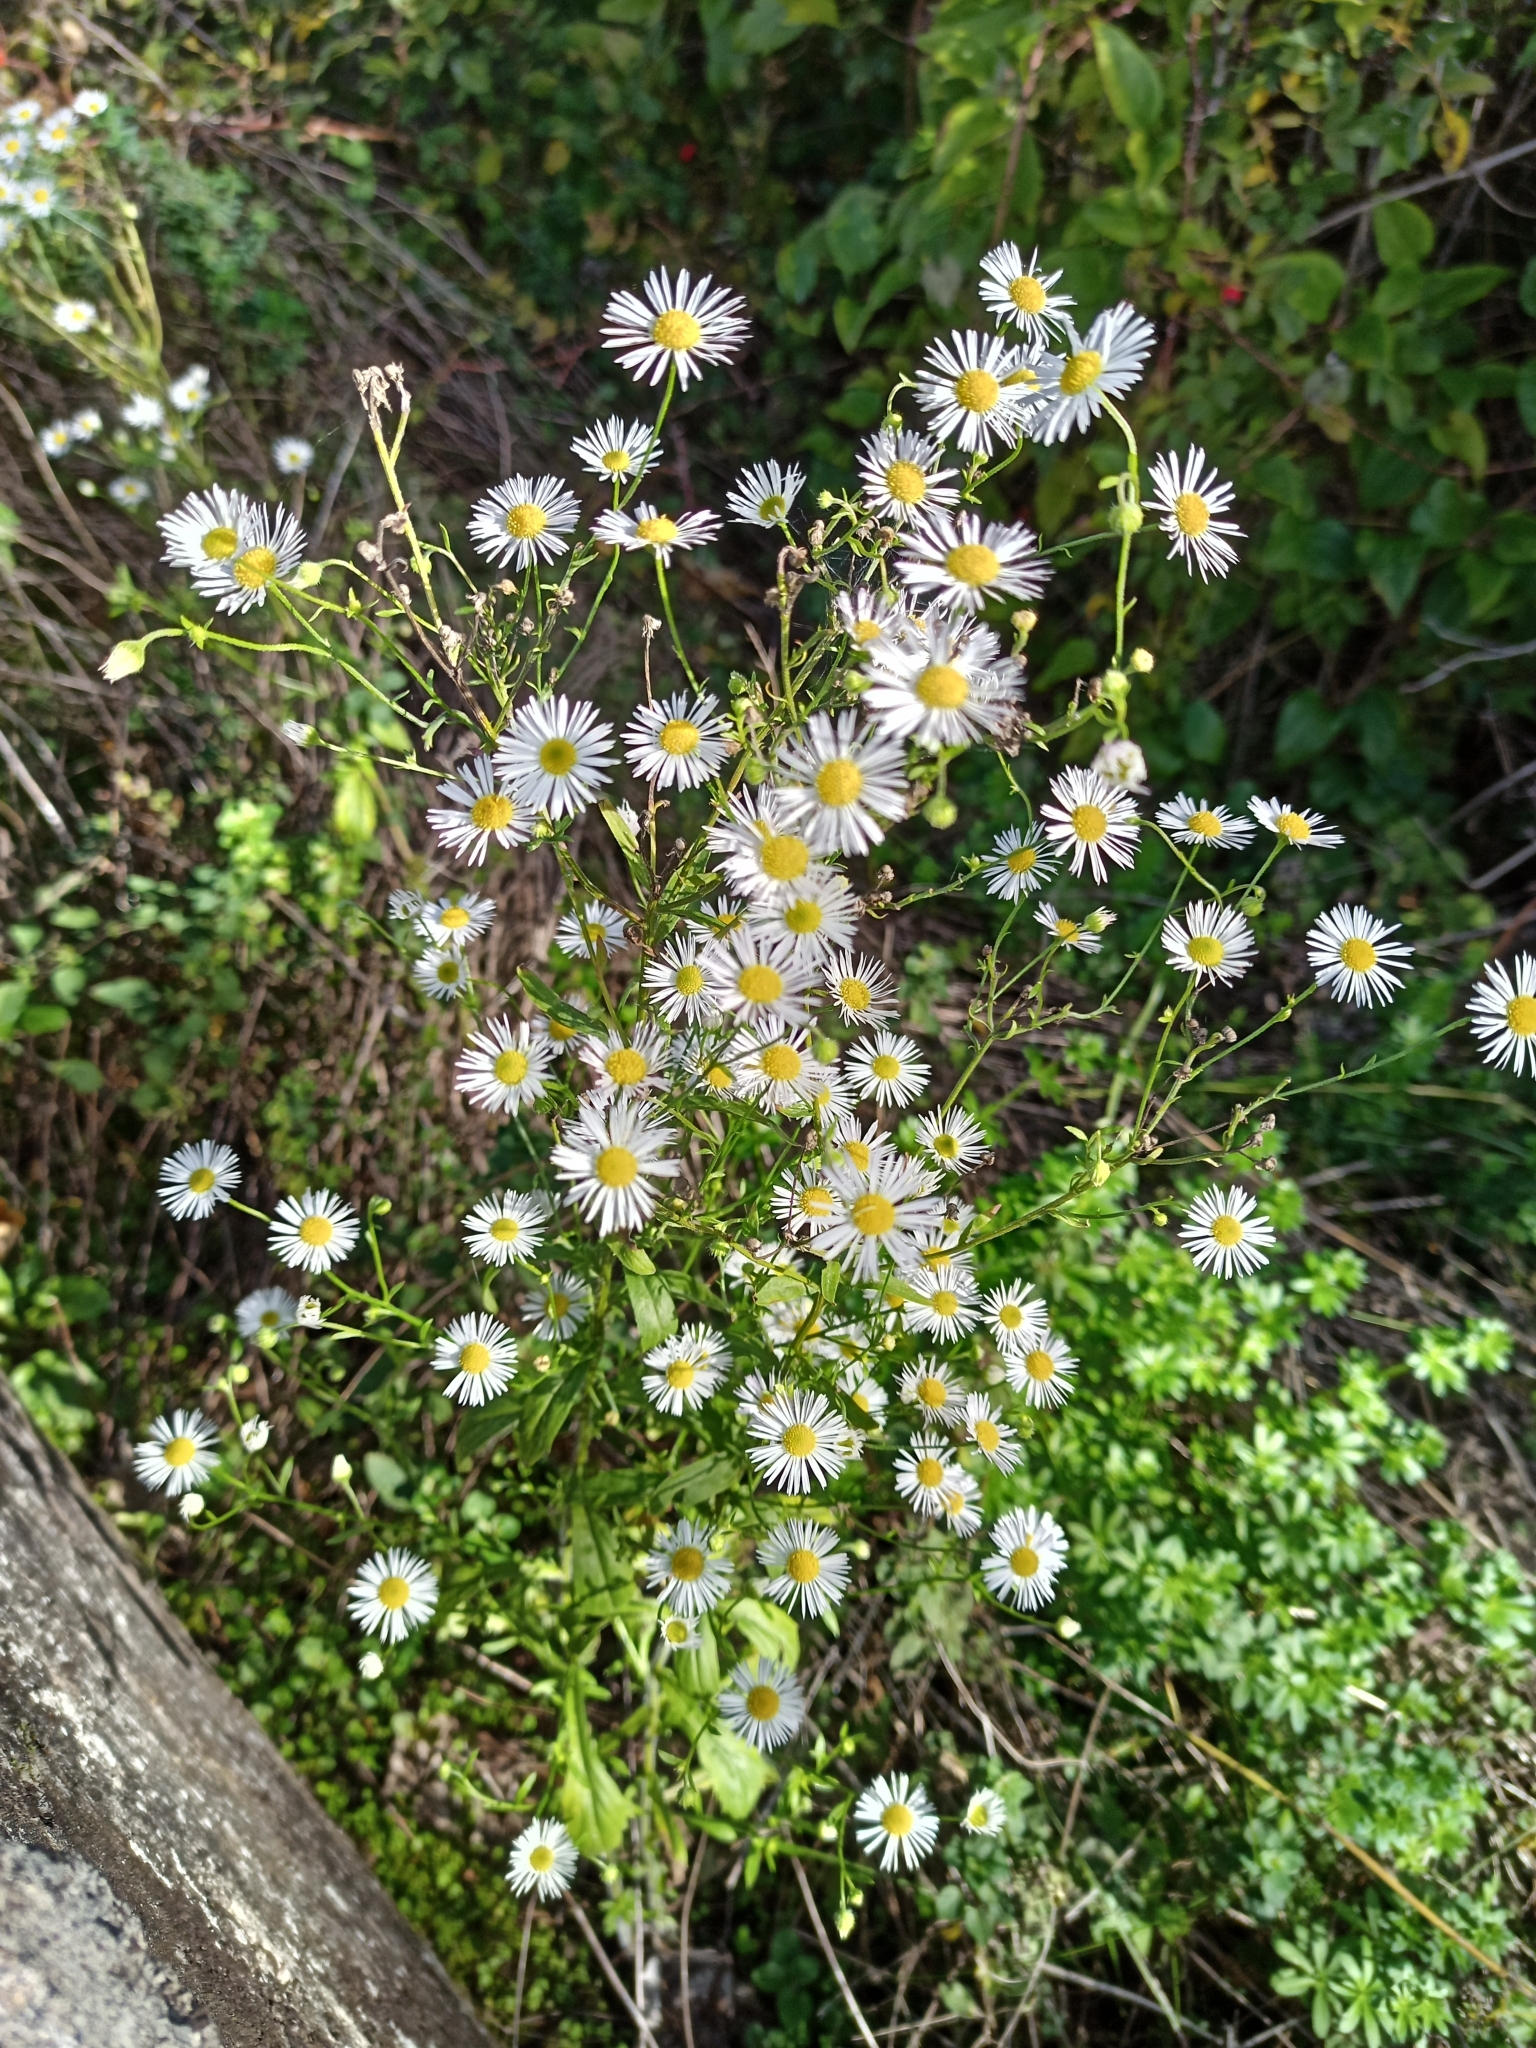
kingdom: Plantae
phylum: Tracheophyta
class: Magnoliopsida
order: Asterales
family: Asteraceae
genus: Erigeron
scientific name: Erigeron annuus
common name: Tall fleabane
